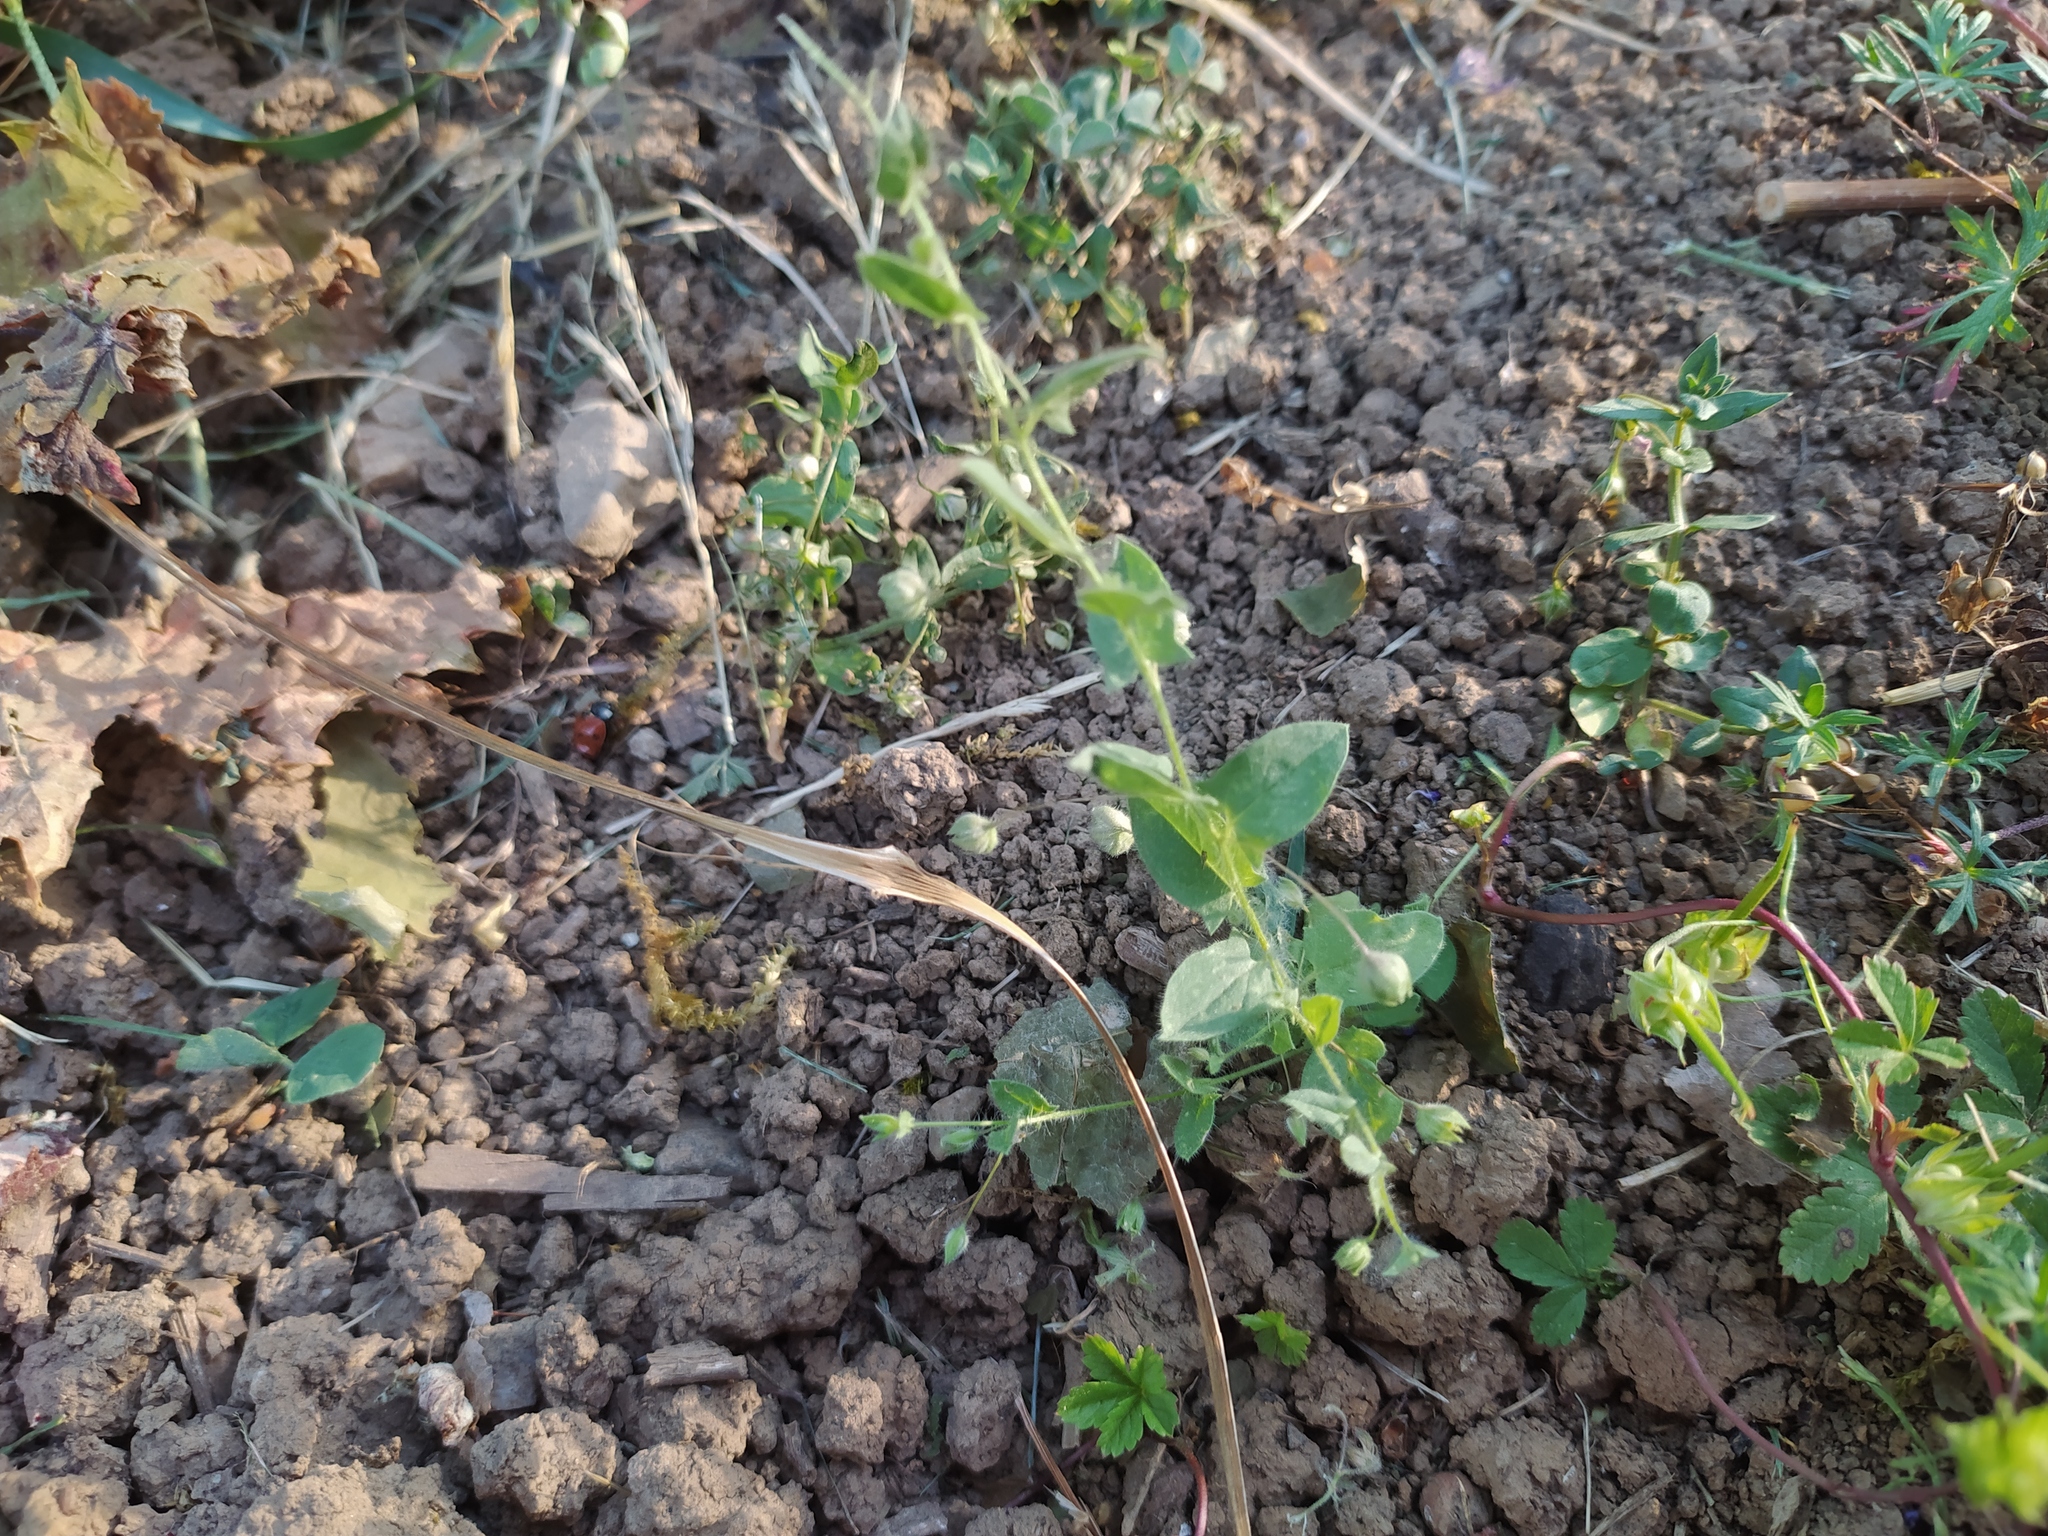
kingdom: Plantae
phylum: Tracheophyta
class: Magnoliopsida
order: Lamiales
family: Plantaginaceae
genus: Kickxia
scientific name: Kickxia elatine
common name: Sharp-leaved fluellen
